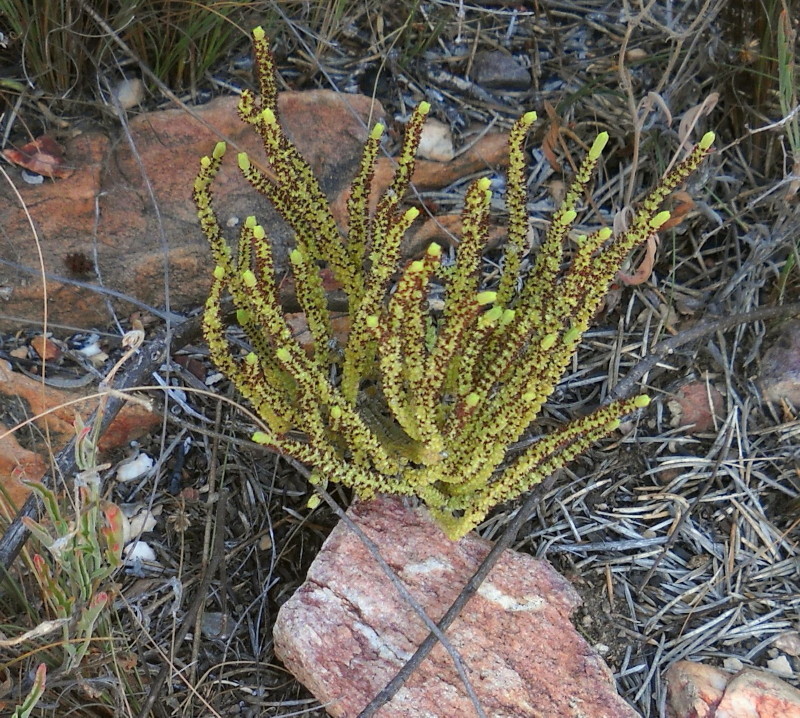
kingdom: Plantae
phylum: Tracheophyta
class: Magnoliopsida
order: Saxifragales
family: Crassulaceae
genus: Crassula
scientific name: Crassula muscosa
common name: Toy-cypress
